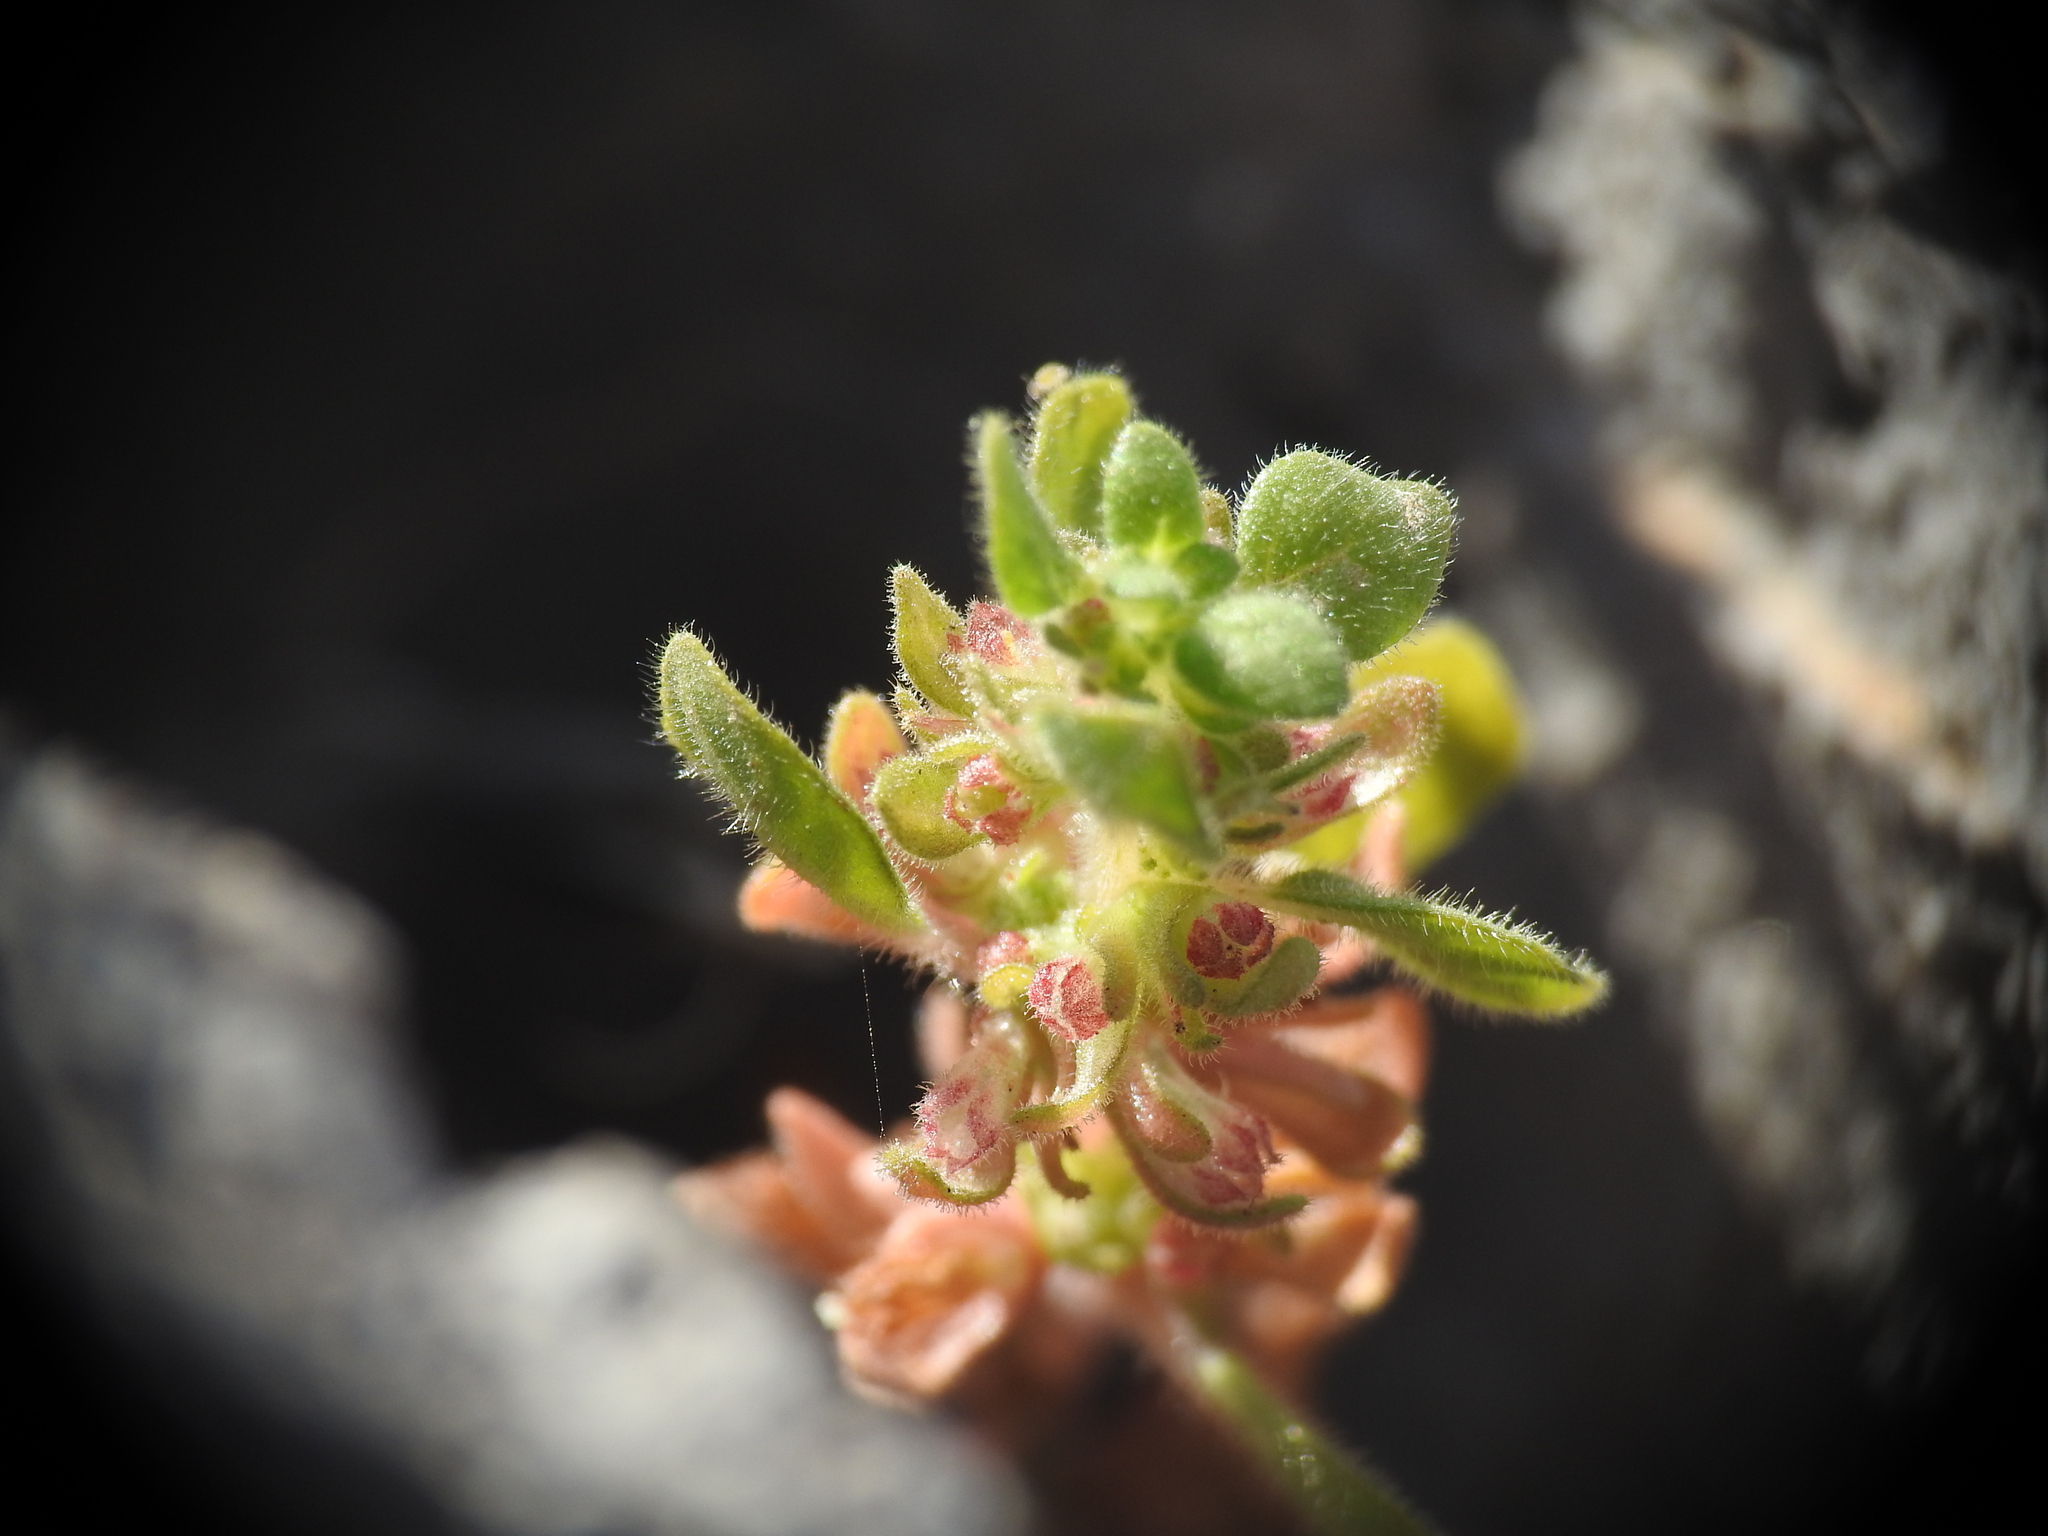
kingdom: Plantae
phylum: Tracheophyta
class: Magnoliopsida
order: Rosales
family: Urticaceae
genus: Parietaria
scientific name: Parietaria cretica
